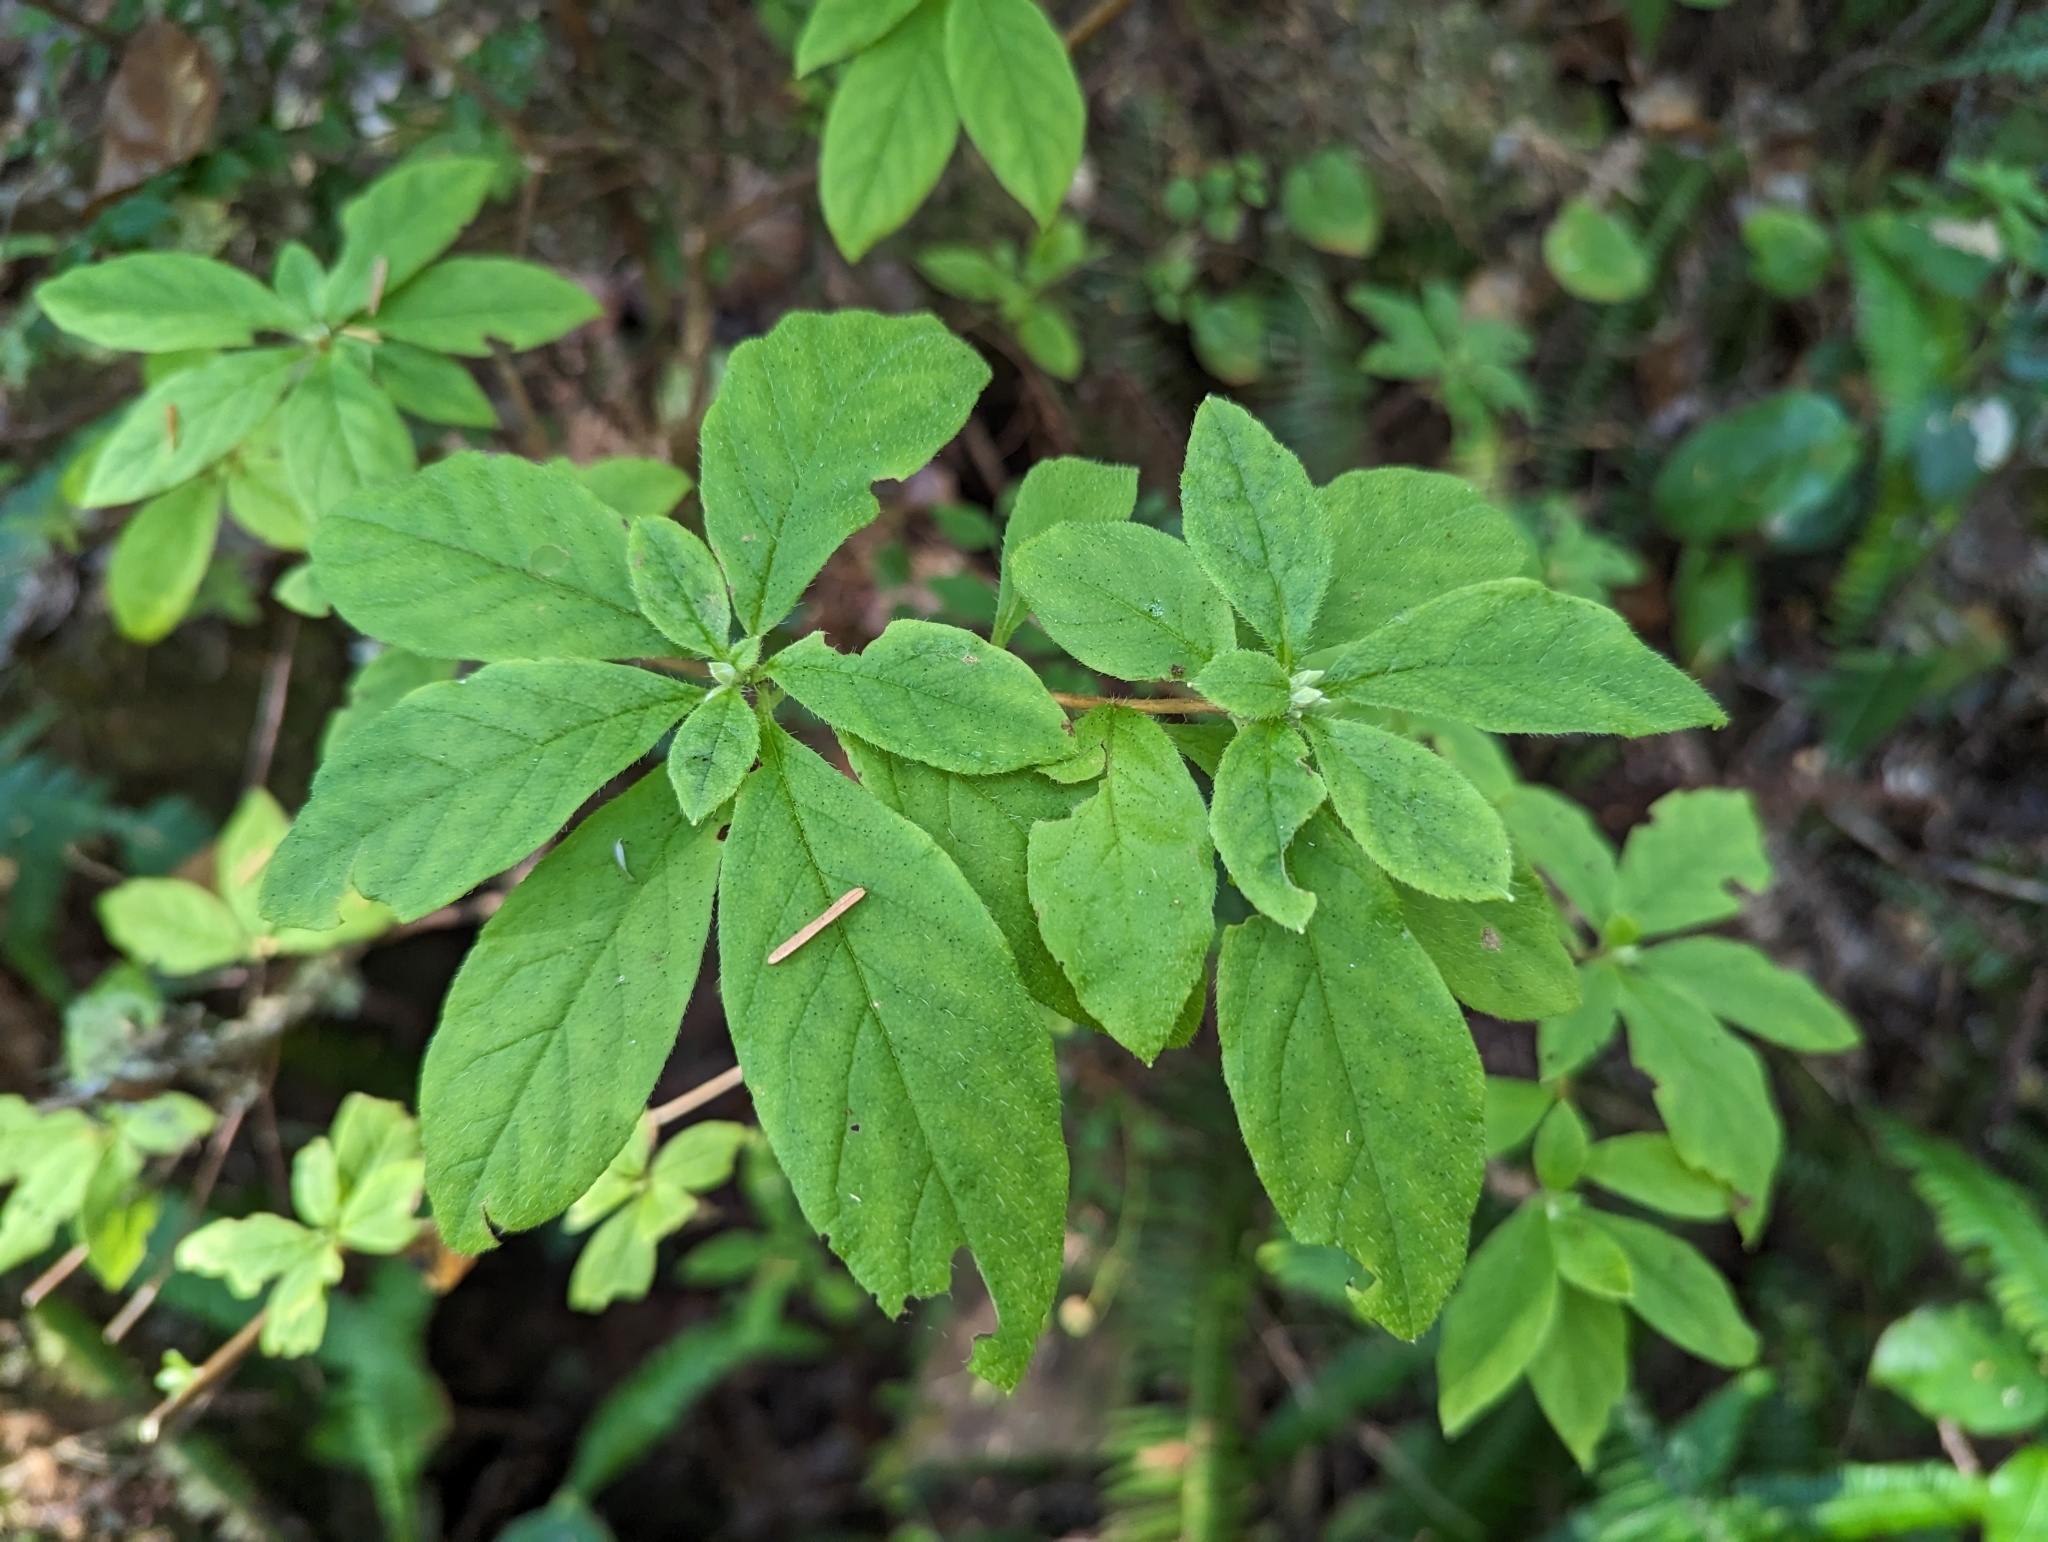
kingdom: Plantae
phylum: Tracheophyta
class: Magnoliopsida
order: Ericales
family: Ericaceae
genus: Rhododendron
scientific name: Rhododendron menziesii
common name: Pacific menziesia
